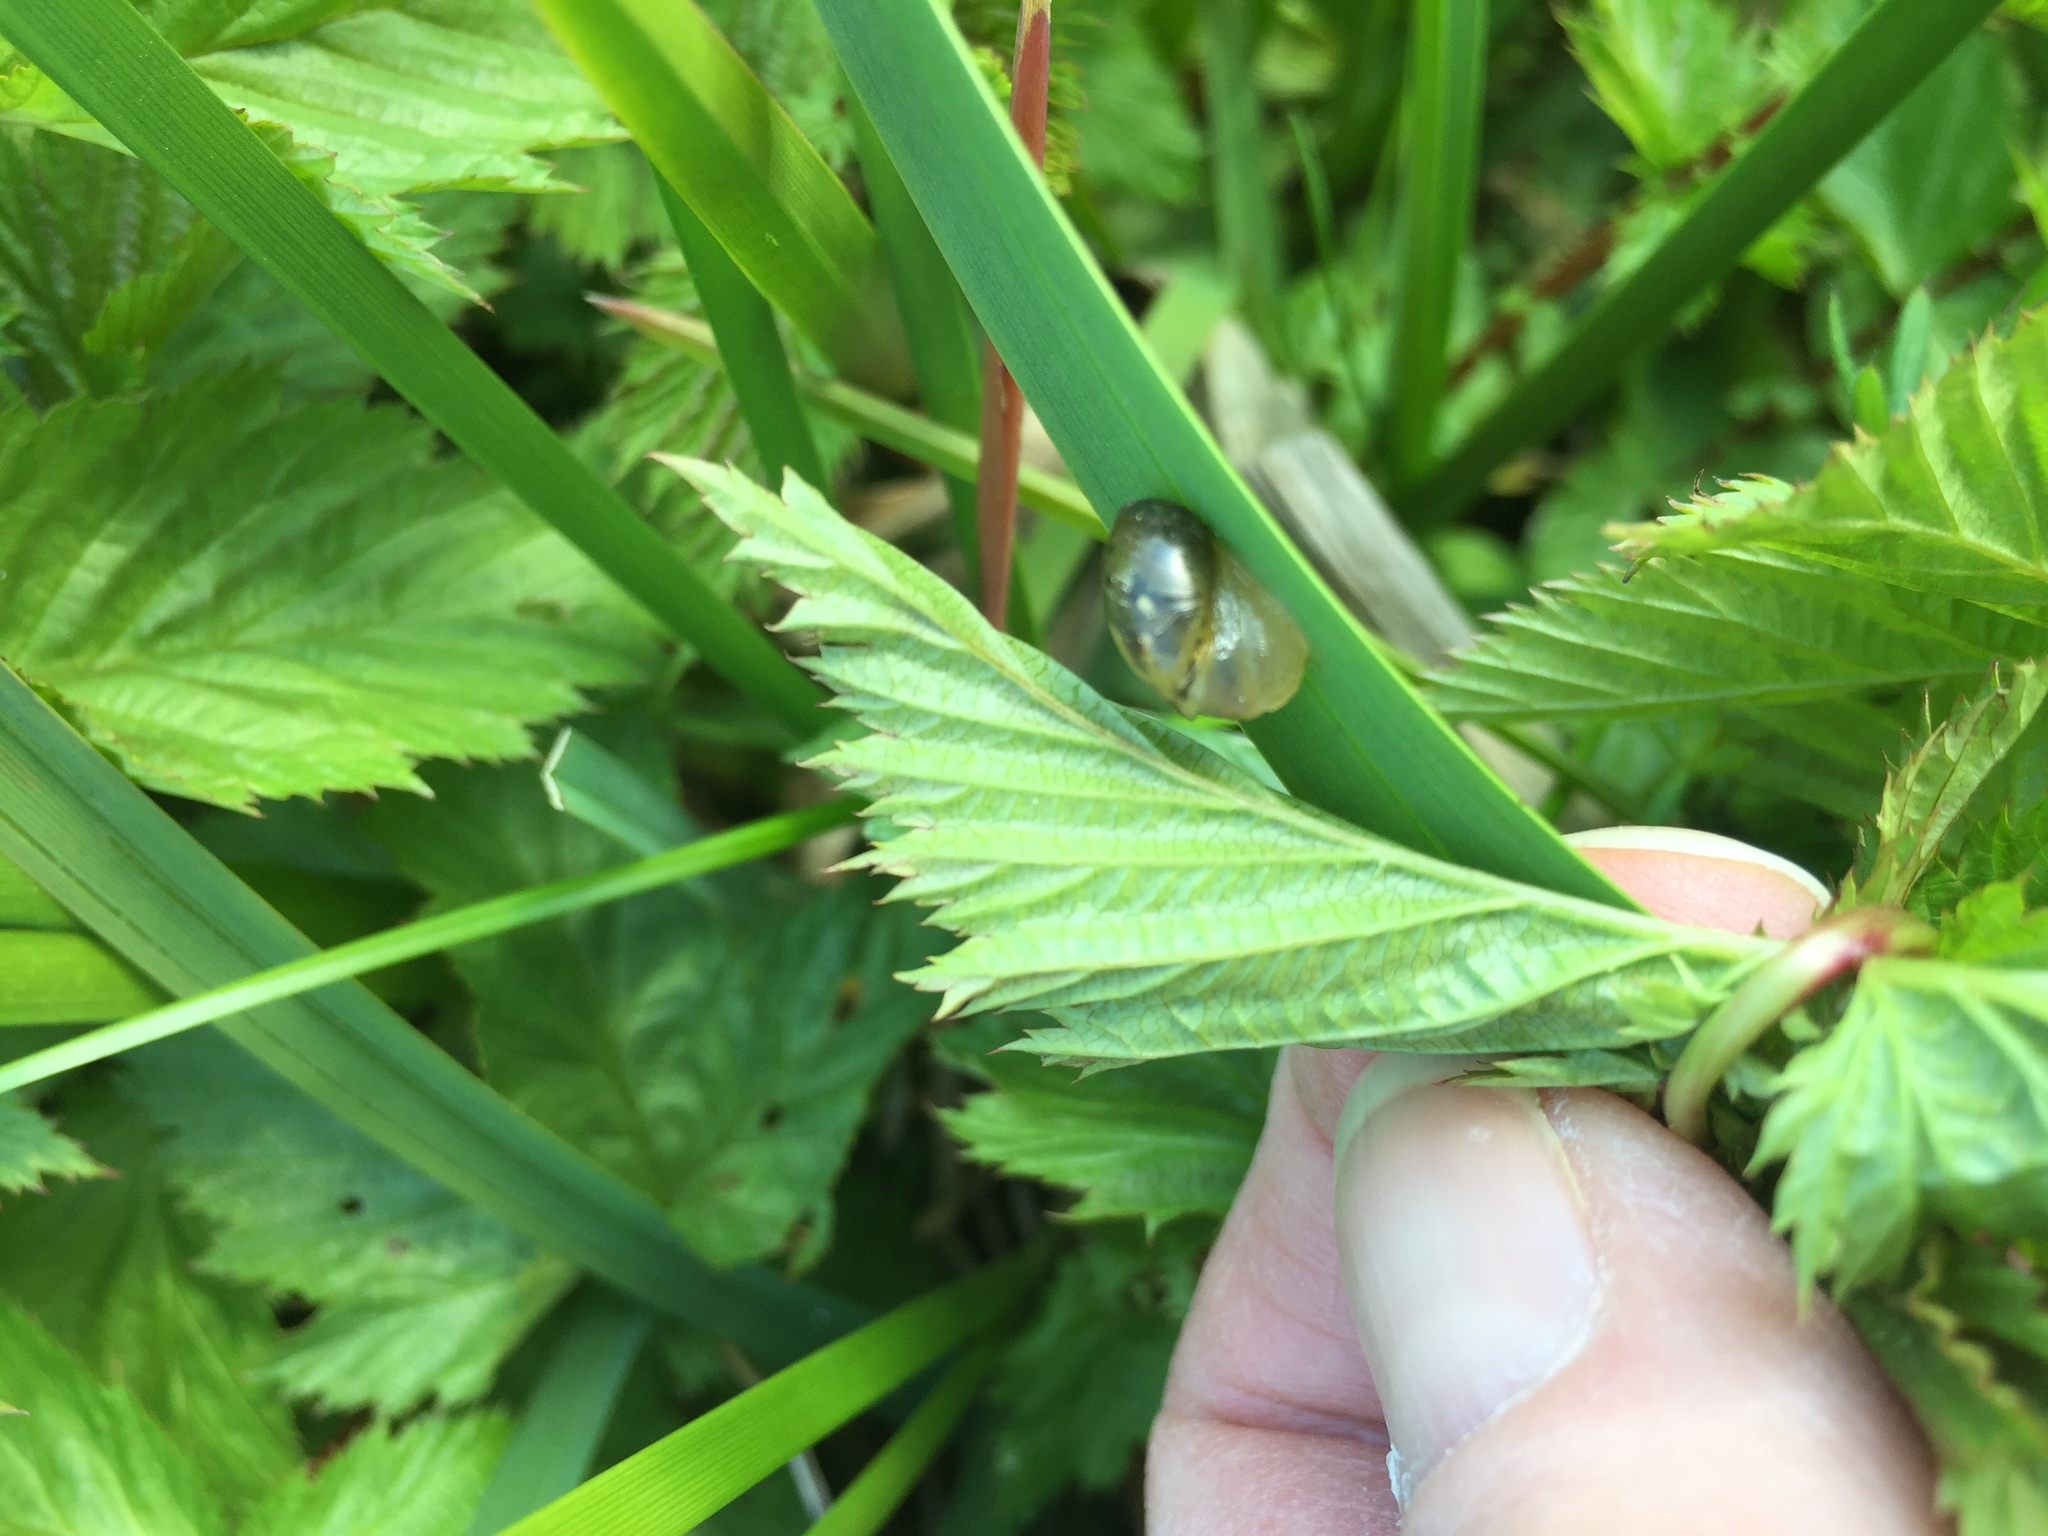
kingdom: Animalia
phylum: Mollusca
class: Gastropoda
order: Stylommatophora
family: Succineidae
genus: Succinea
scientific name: Succinea putris
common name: European ambersnail
